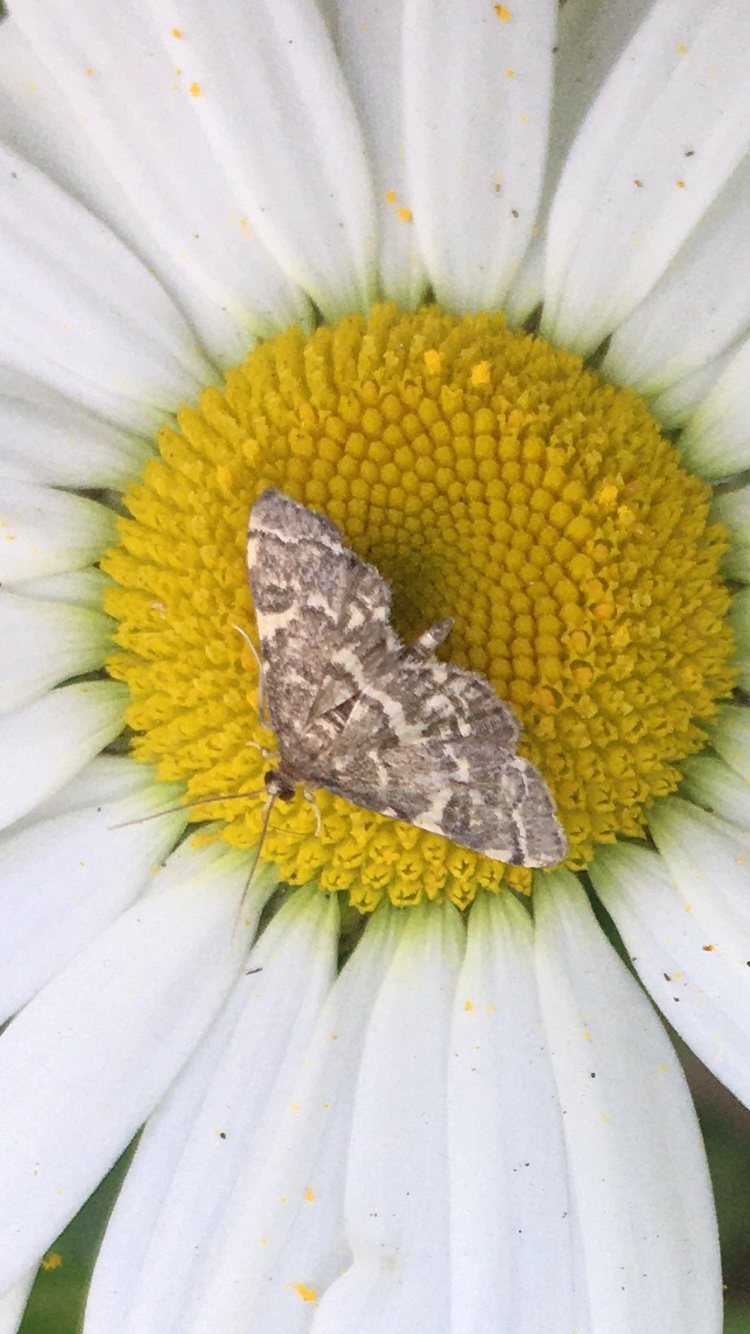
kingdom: Animalia
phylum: Arthropoda
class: Insecta
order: Lepidoptera
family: Crambidae
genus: Anageshna
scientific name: Anageshna primordialis
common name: Yellow-spotted webworm moth
